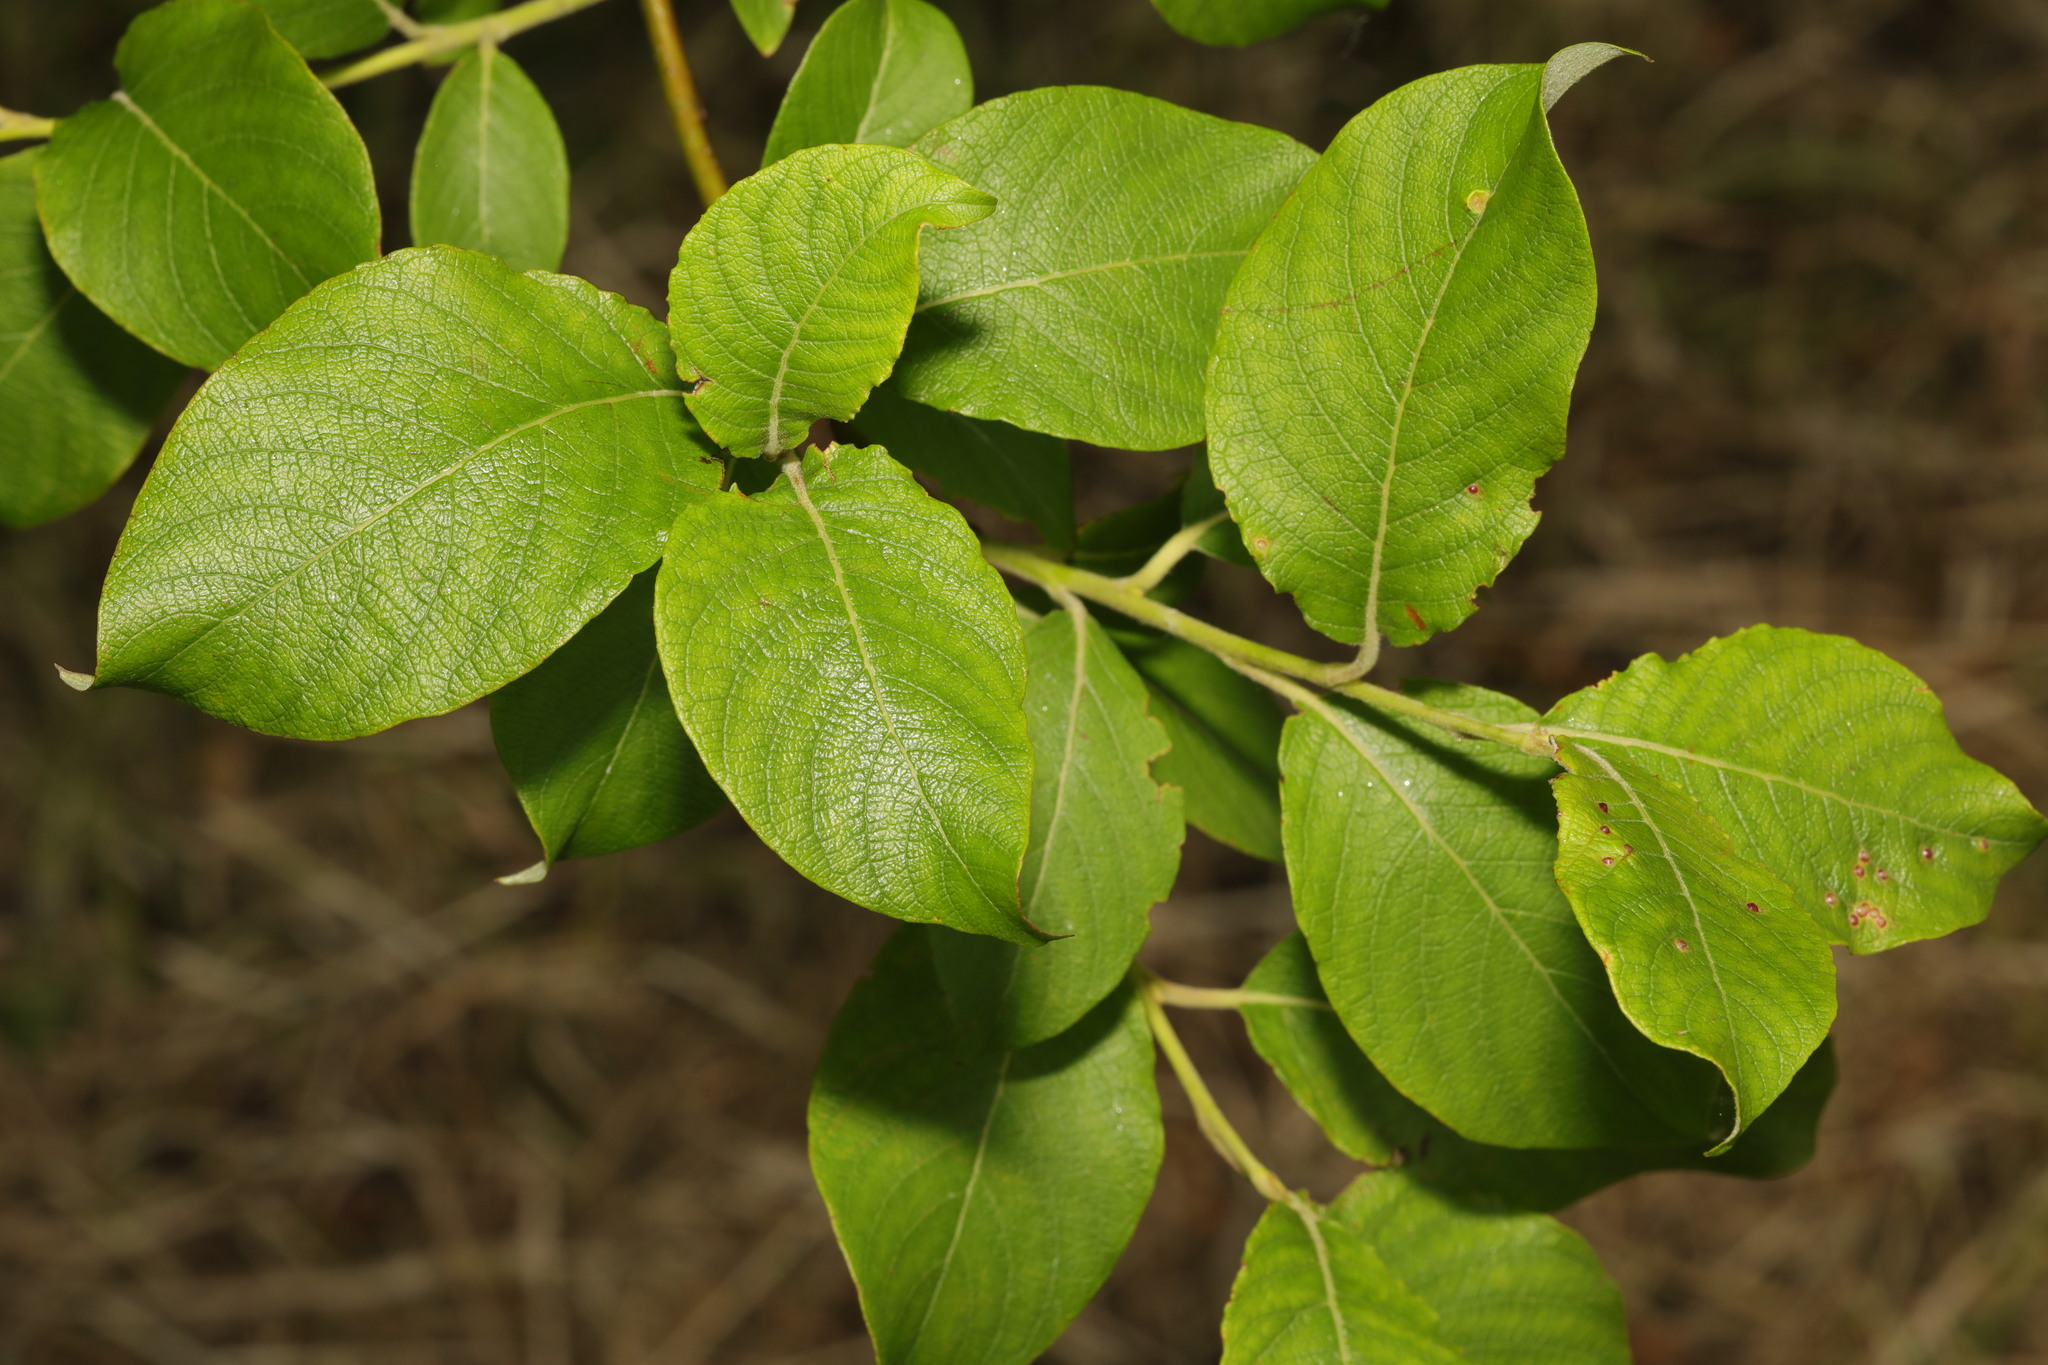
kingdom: Plantae
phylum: Tracheophyta
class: Magnoliopsida
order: Malpighiales
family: Salicaceae
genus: Salix
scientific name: Salix caprea
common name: Goat willow
